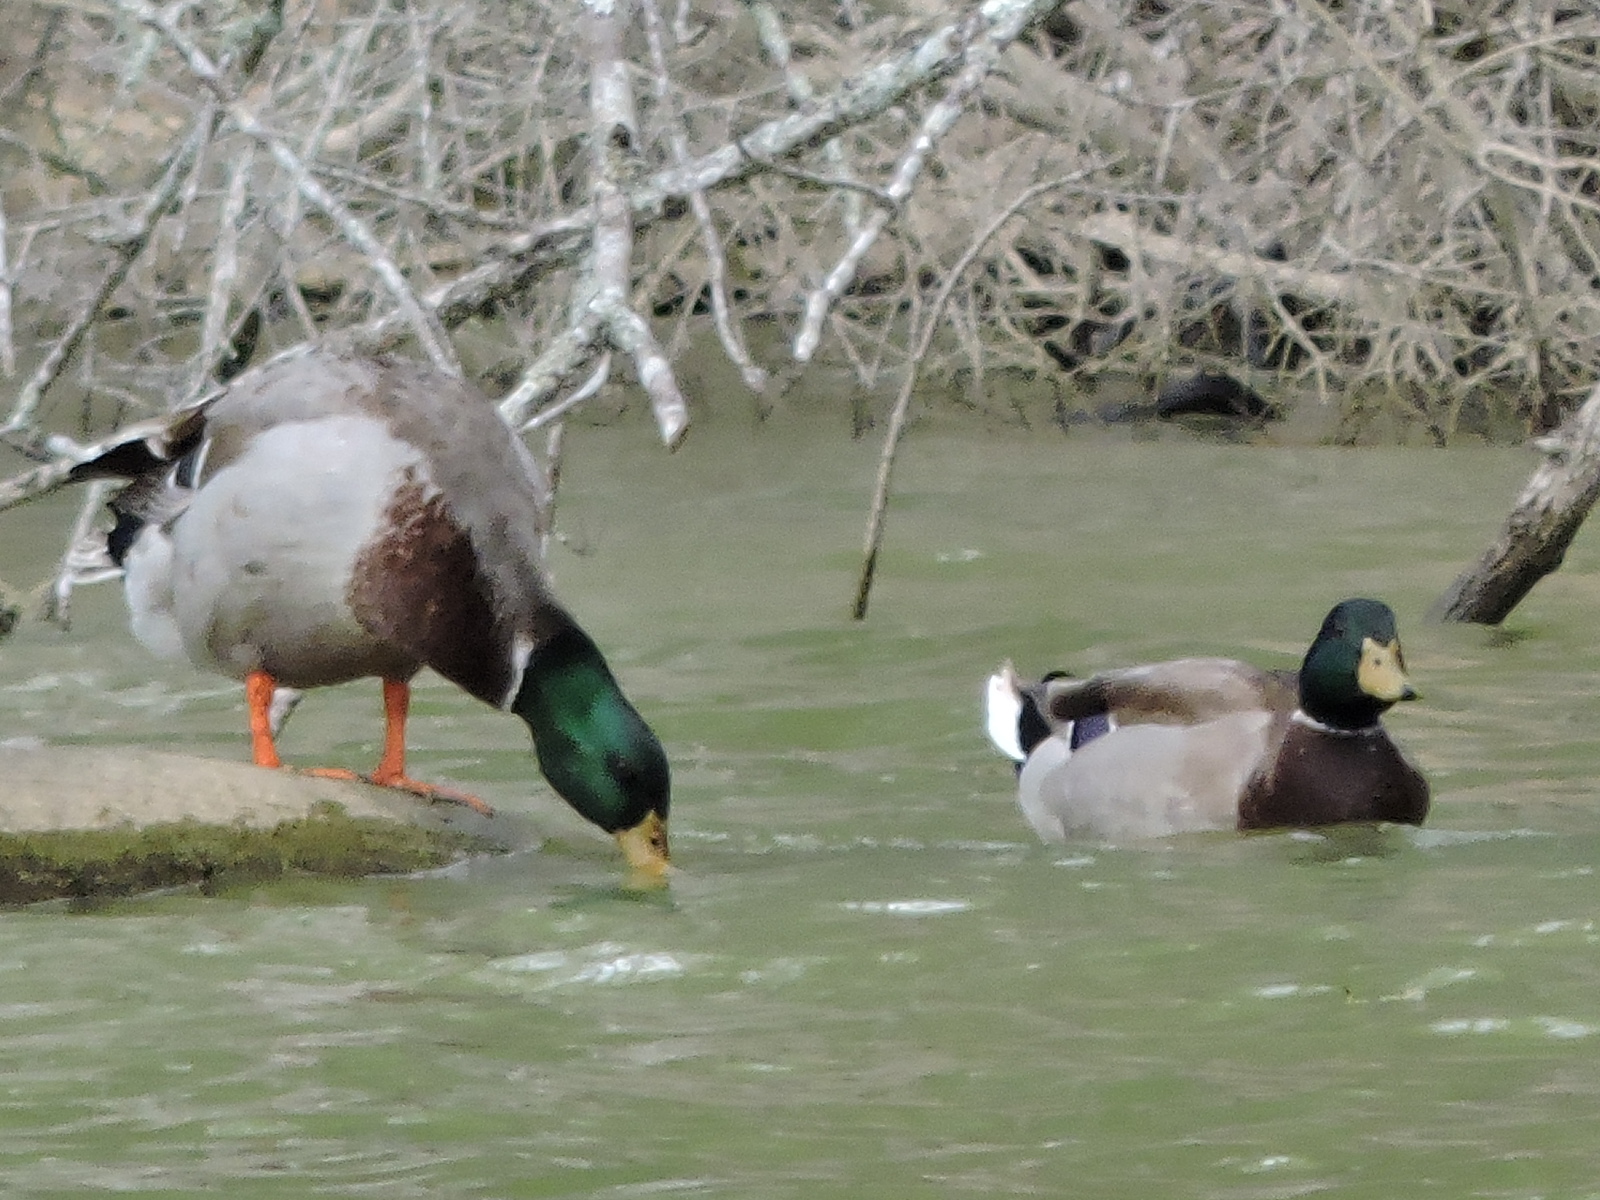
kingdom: Animalia
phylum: Chordata
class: Aves
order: Anseriformes
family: Anatidae
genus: Anas
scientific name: Anas platyrhynchos
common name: Mallard
